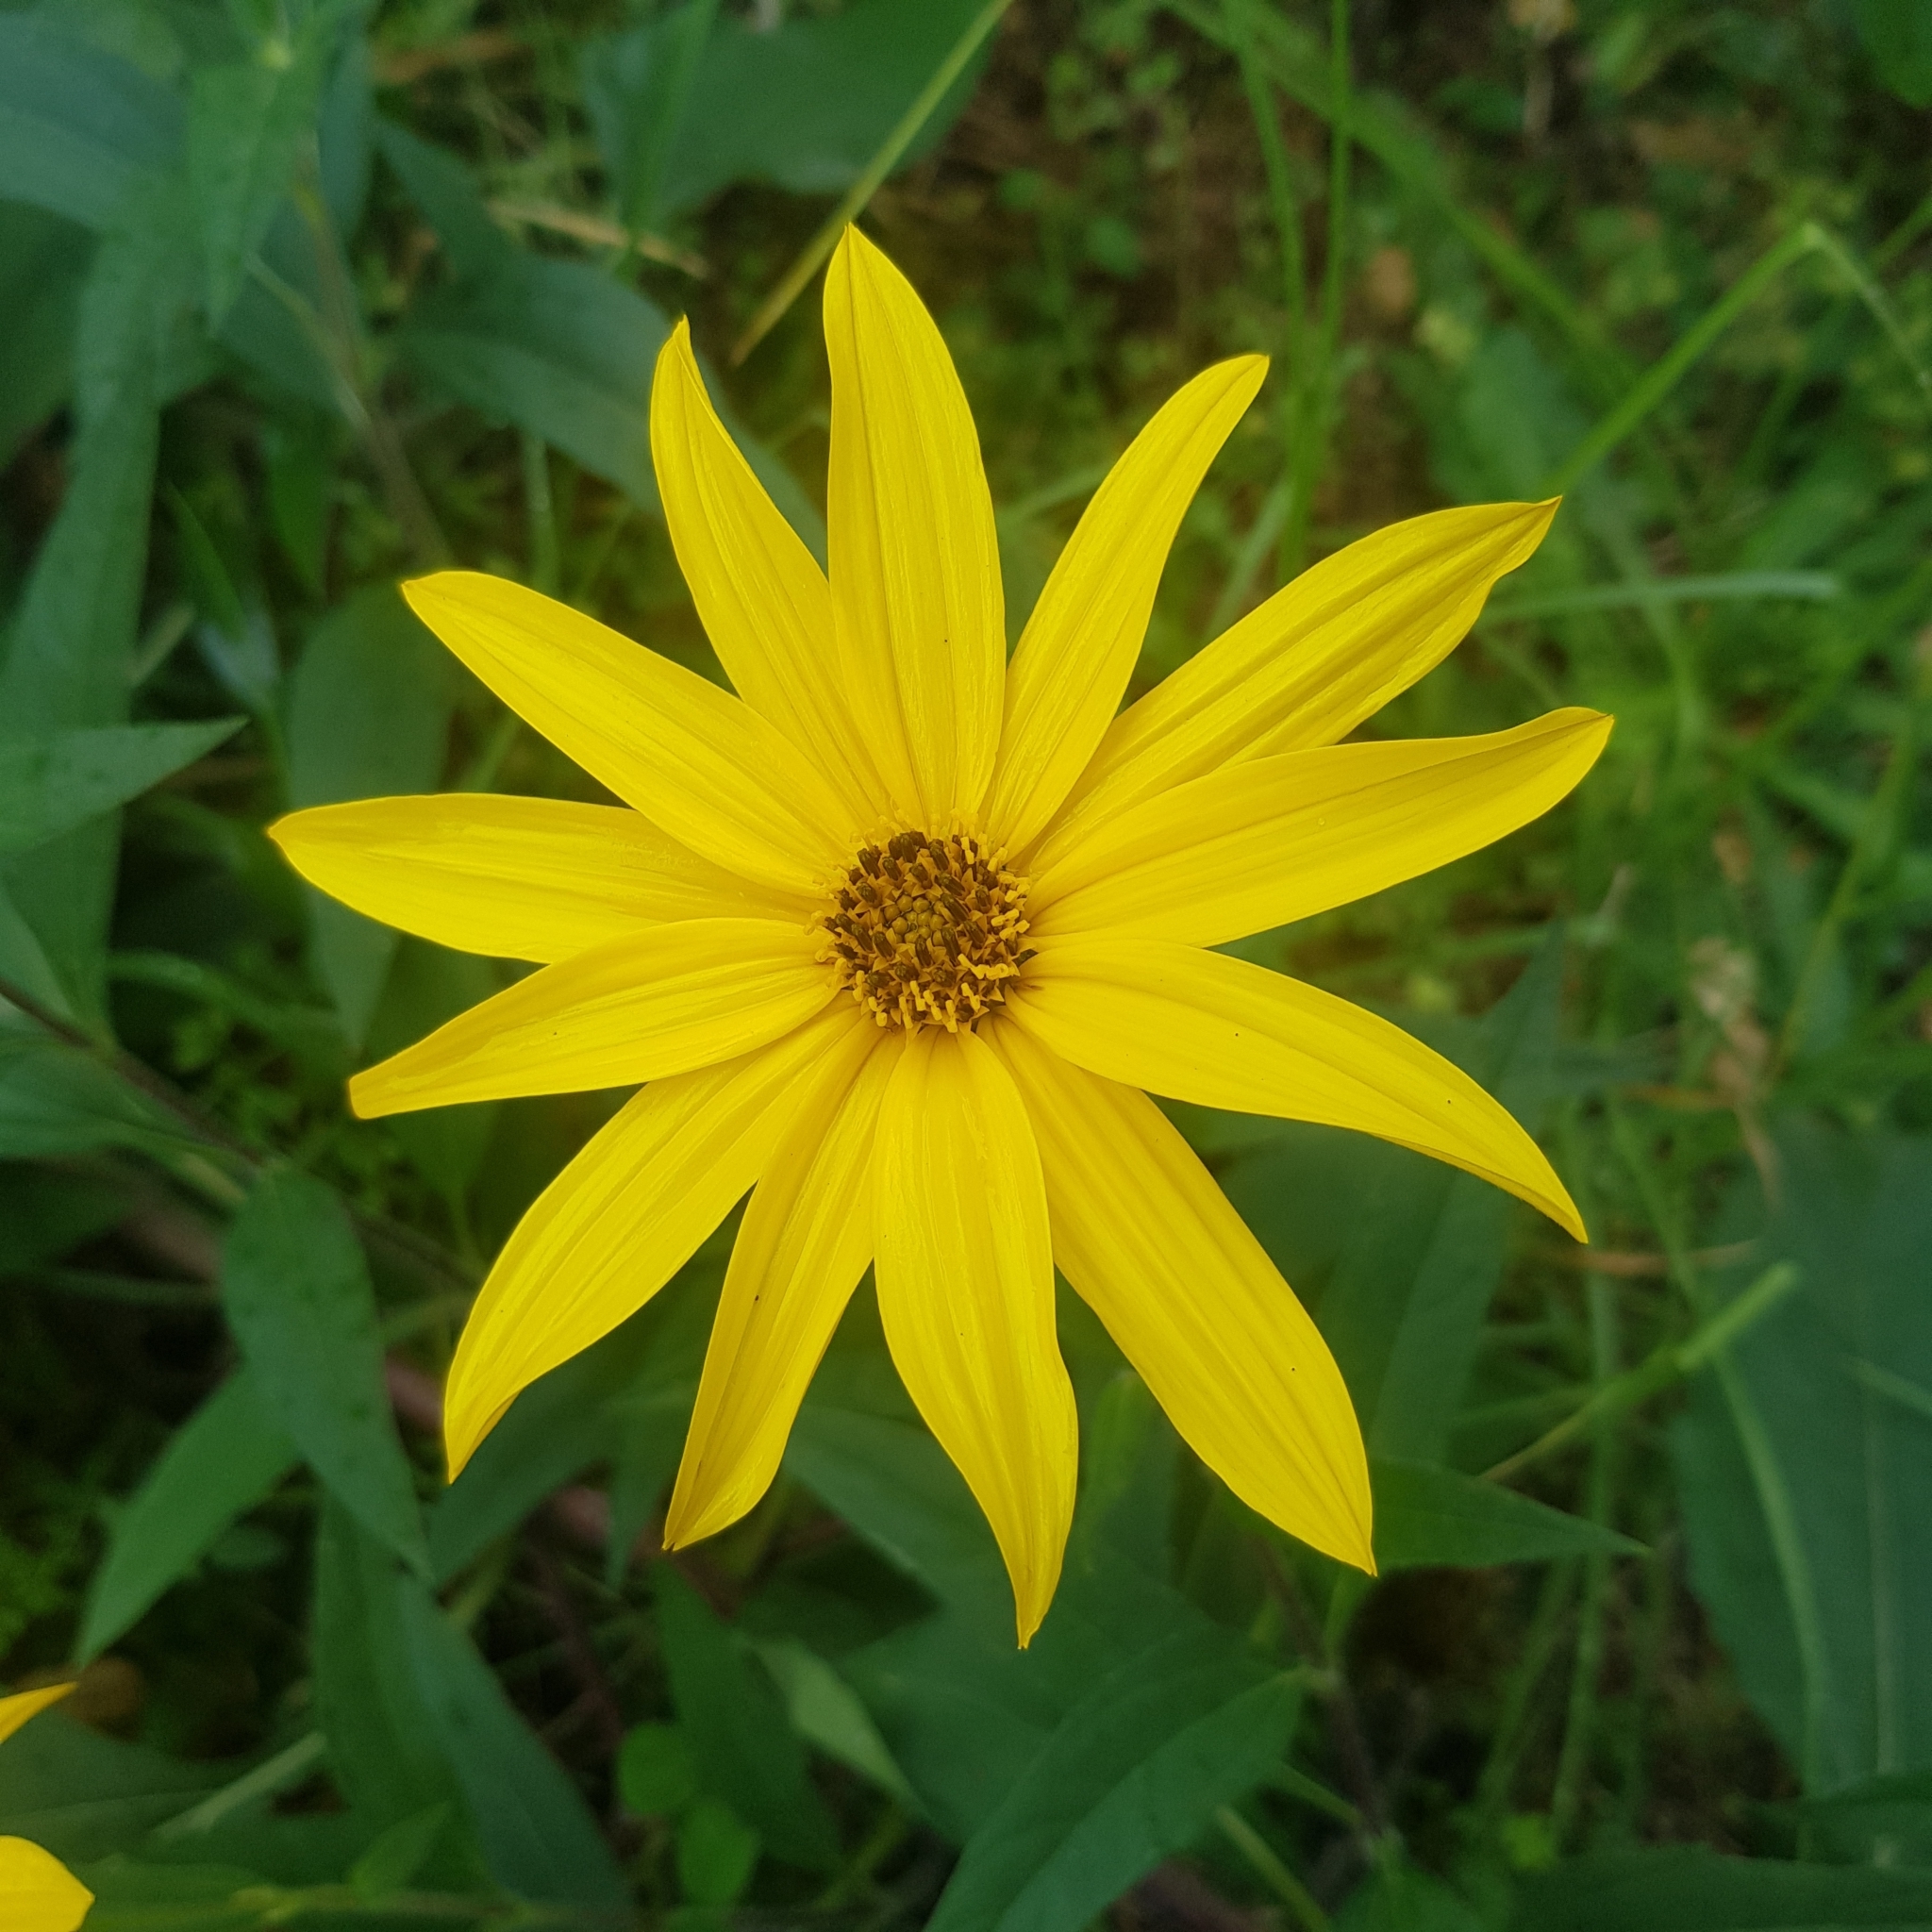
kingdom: Plantae
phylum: Tracheophyta
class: Magnoliopsida
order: Asterales
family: Asteraceae
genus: Helianthus
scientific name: Helianthus tuberosus
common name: Jerusalem artichoke
